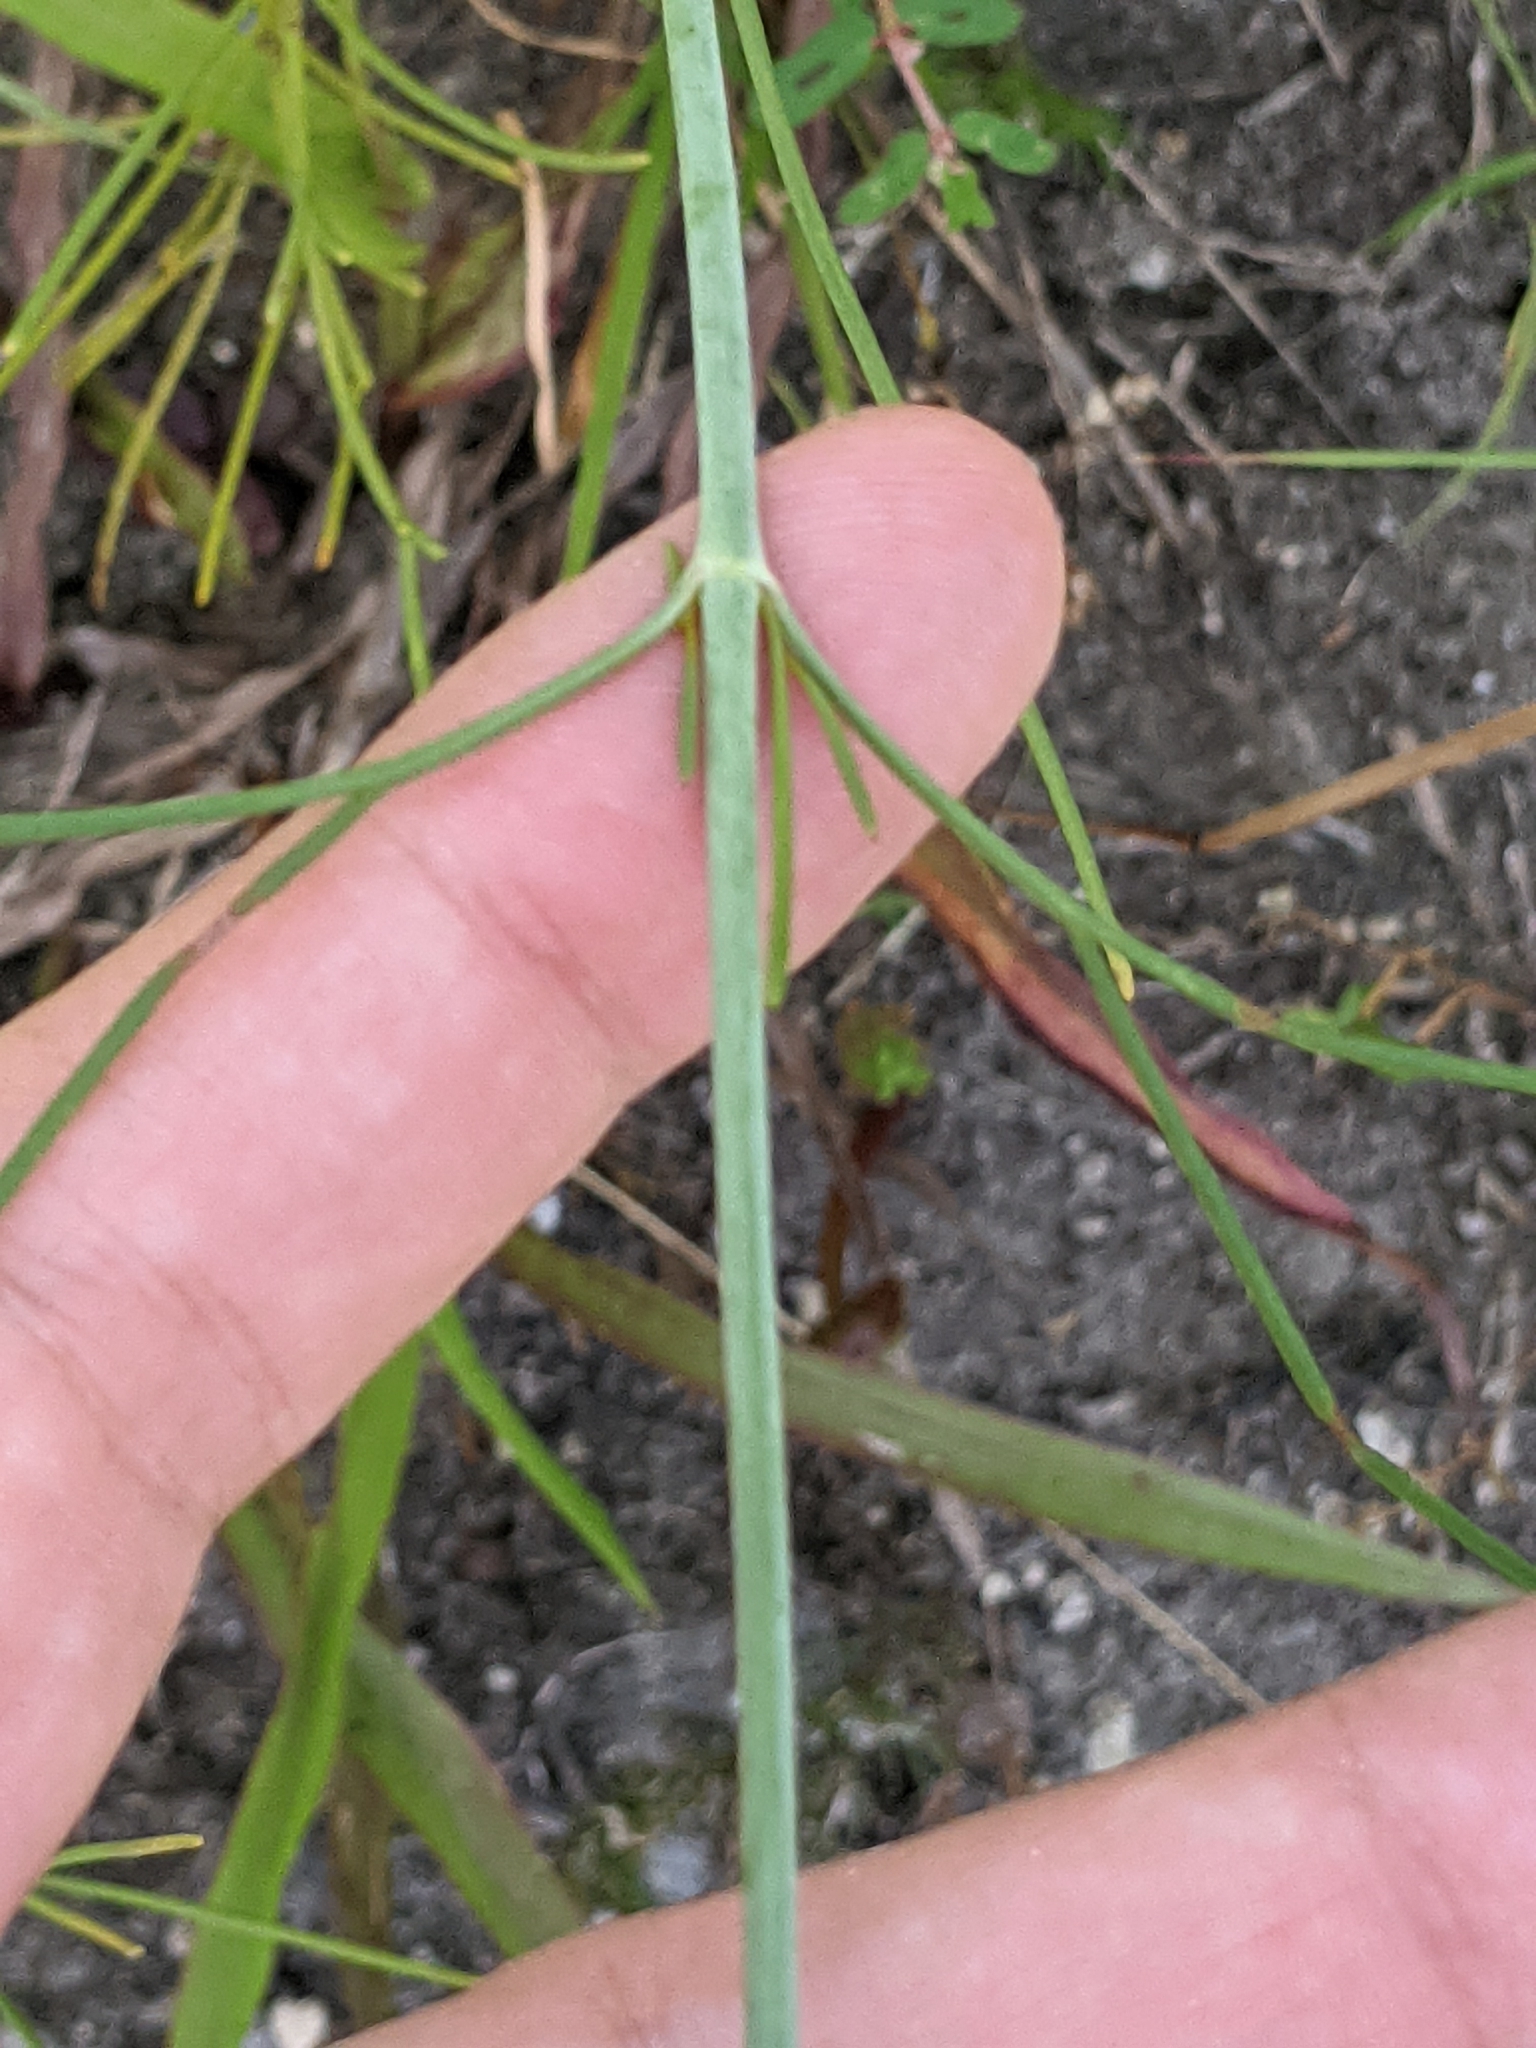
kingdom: Plantae
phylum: Tracheophyta
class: Magnoliopsida
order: Asterales
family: Asteraceae
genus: Thelesperma
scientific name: Thelesperma filifolium
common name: Stiff greenthread
